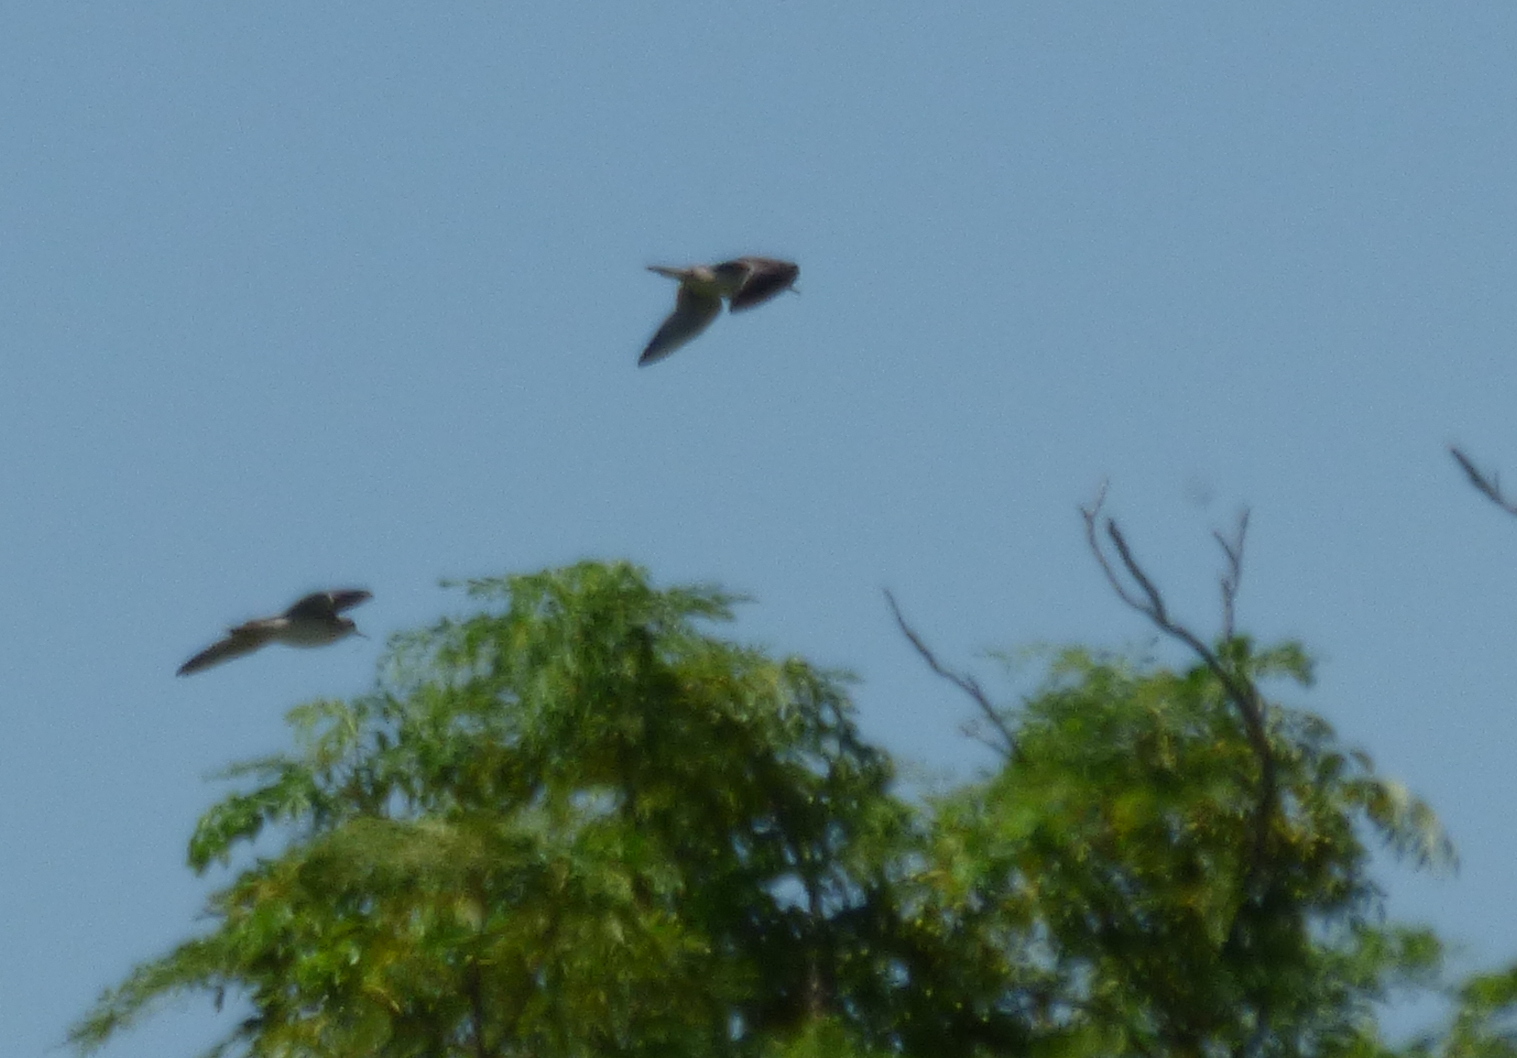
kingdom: Animalia
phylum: Chordata
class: Aves
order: Charadriiformes
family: Scolopacidae
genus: Bartramia
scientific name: Bartramia longicauda
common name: Upland sandpiper
